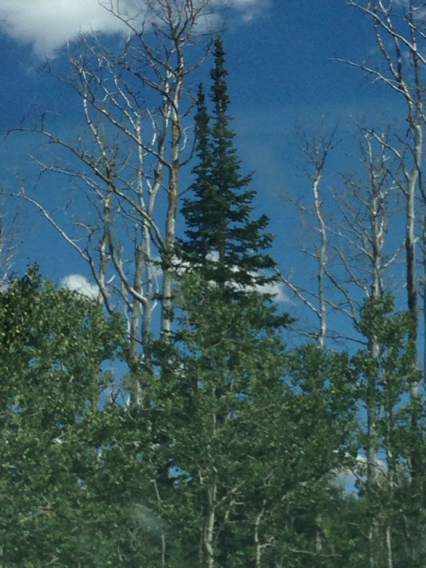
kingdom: Plantae
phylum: Tracheophyta
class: Magnoliopsida
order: Malpighiales
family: Salicaceae
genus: Populus
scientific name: Populus tremuloides
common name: Quaking aspen
